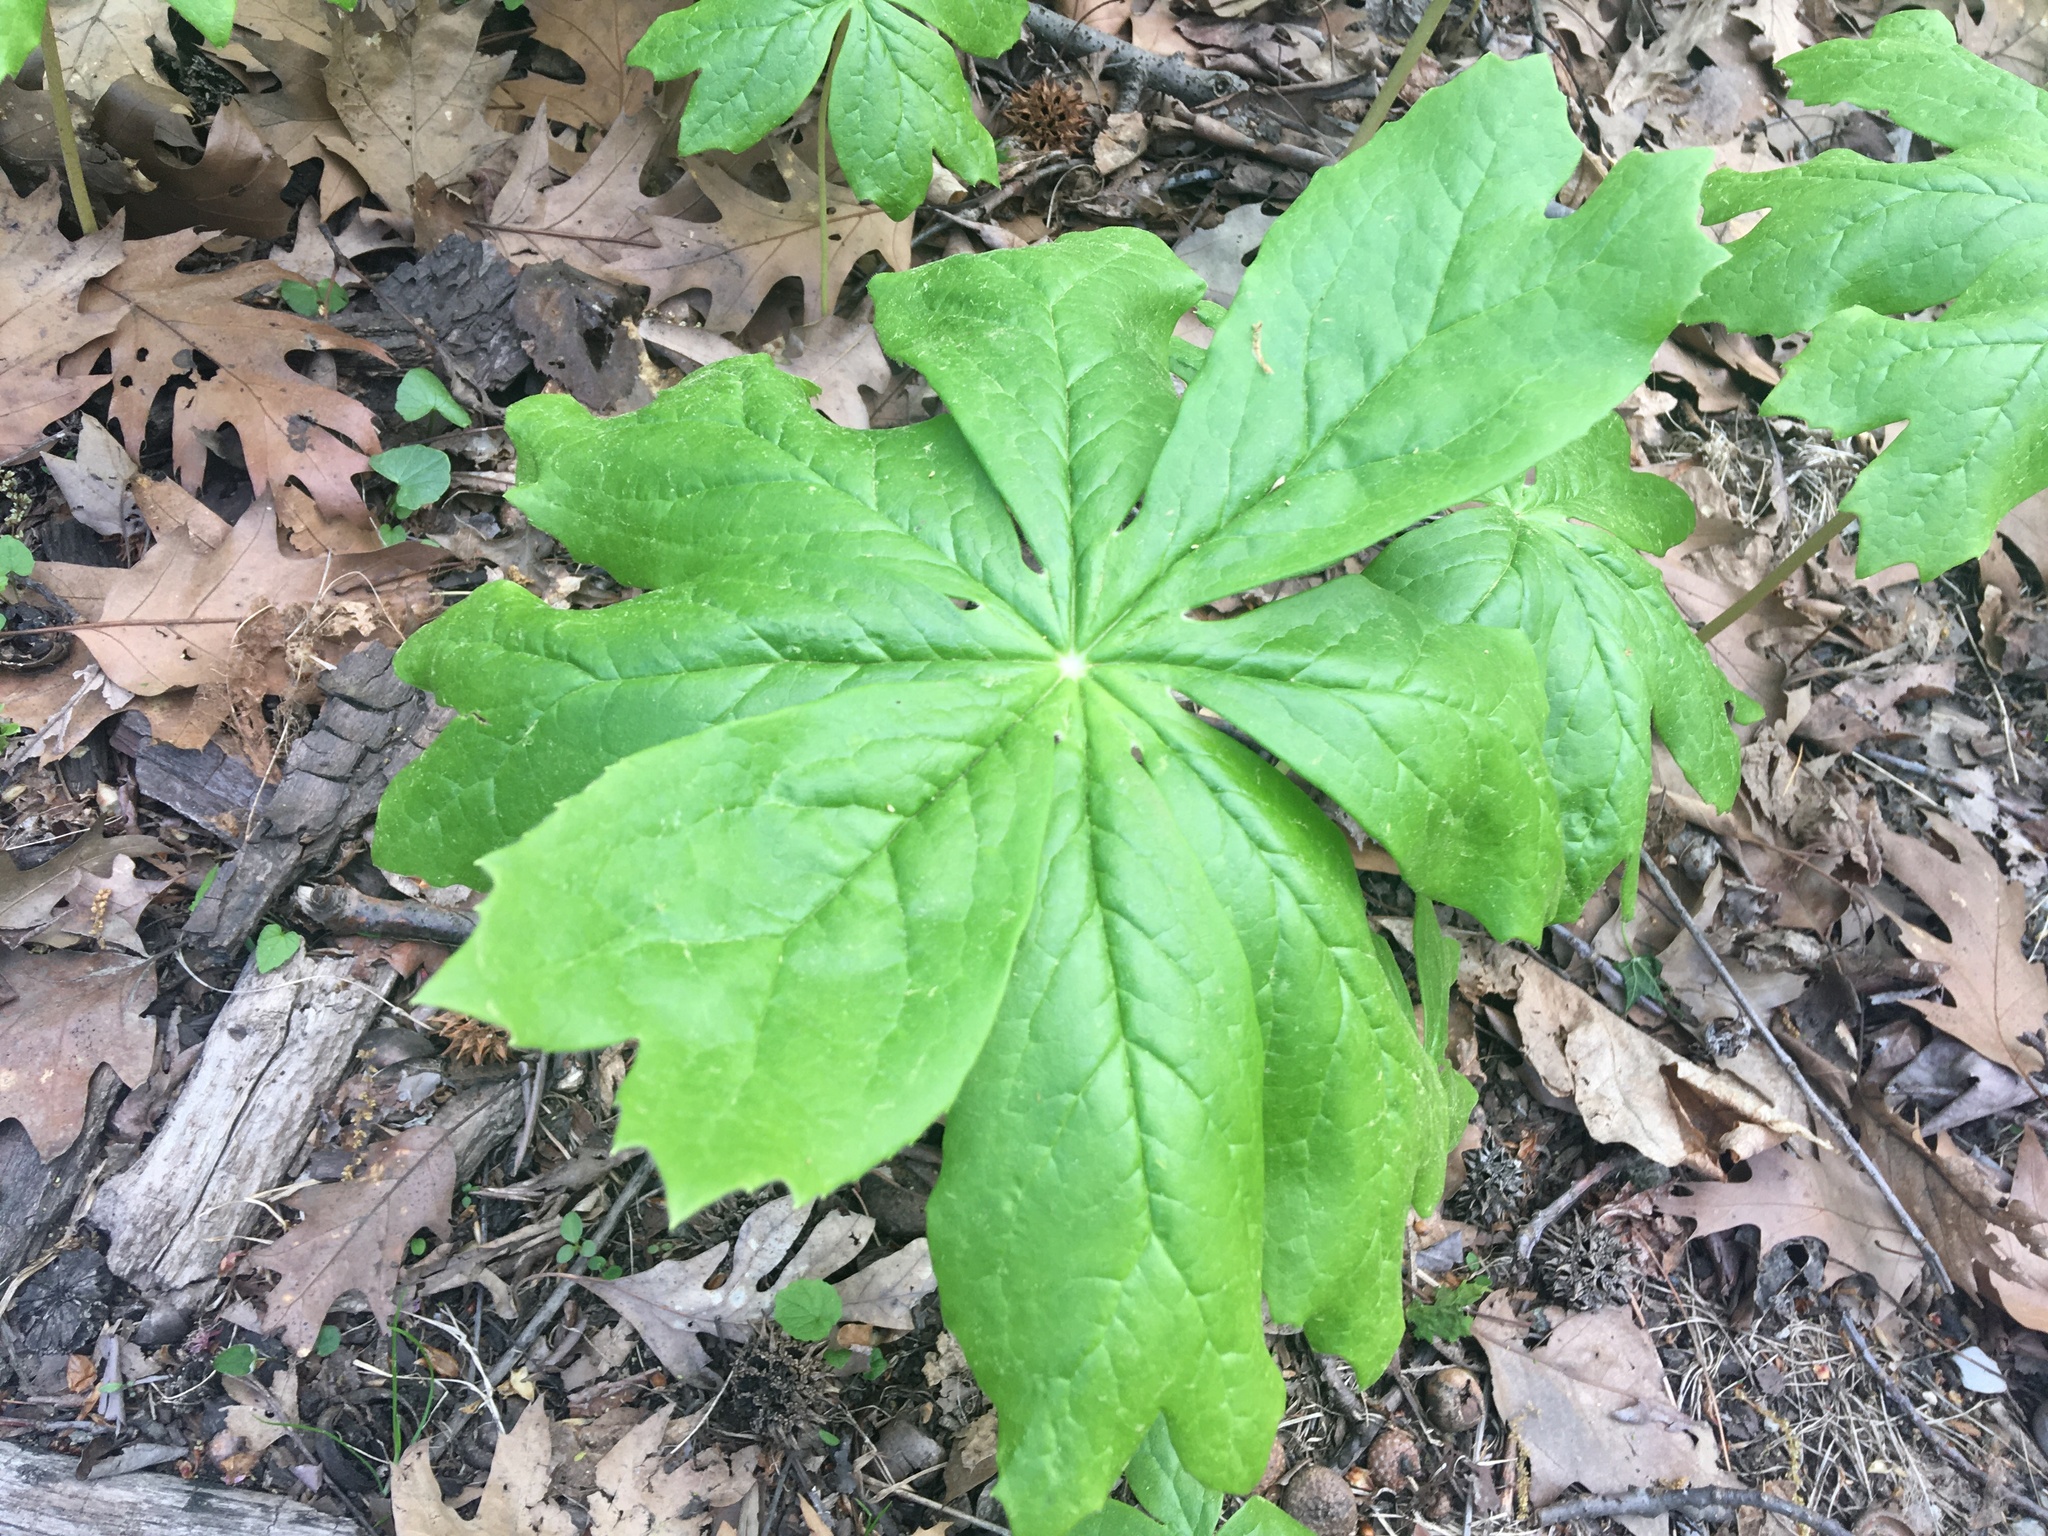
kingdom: Plantae
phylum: Tracheophyta
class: Magnoliopsida
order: Ranunculales
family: Berberidaceae
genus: Podophyllum
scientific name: Podophyllum peltatum
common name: Wild mandrake
